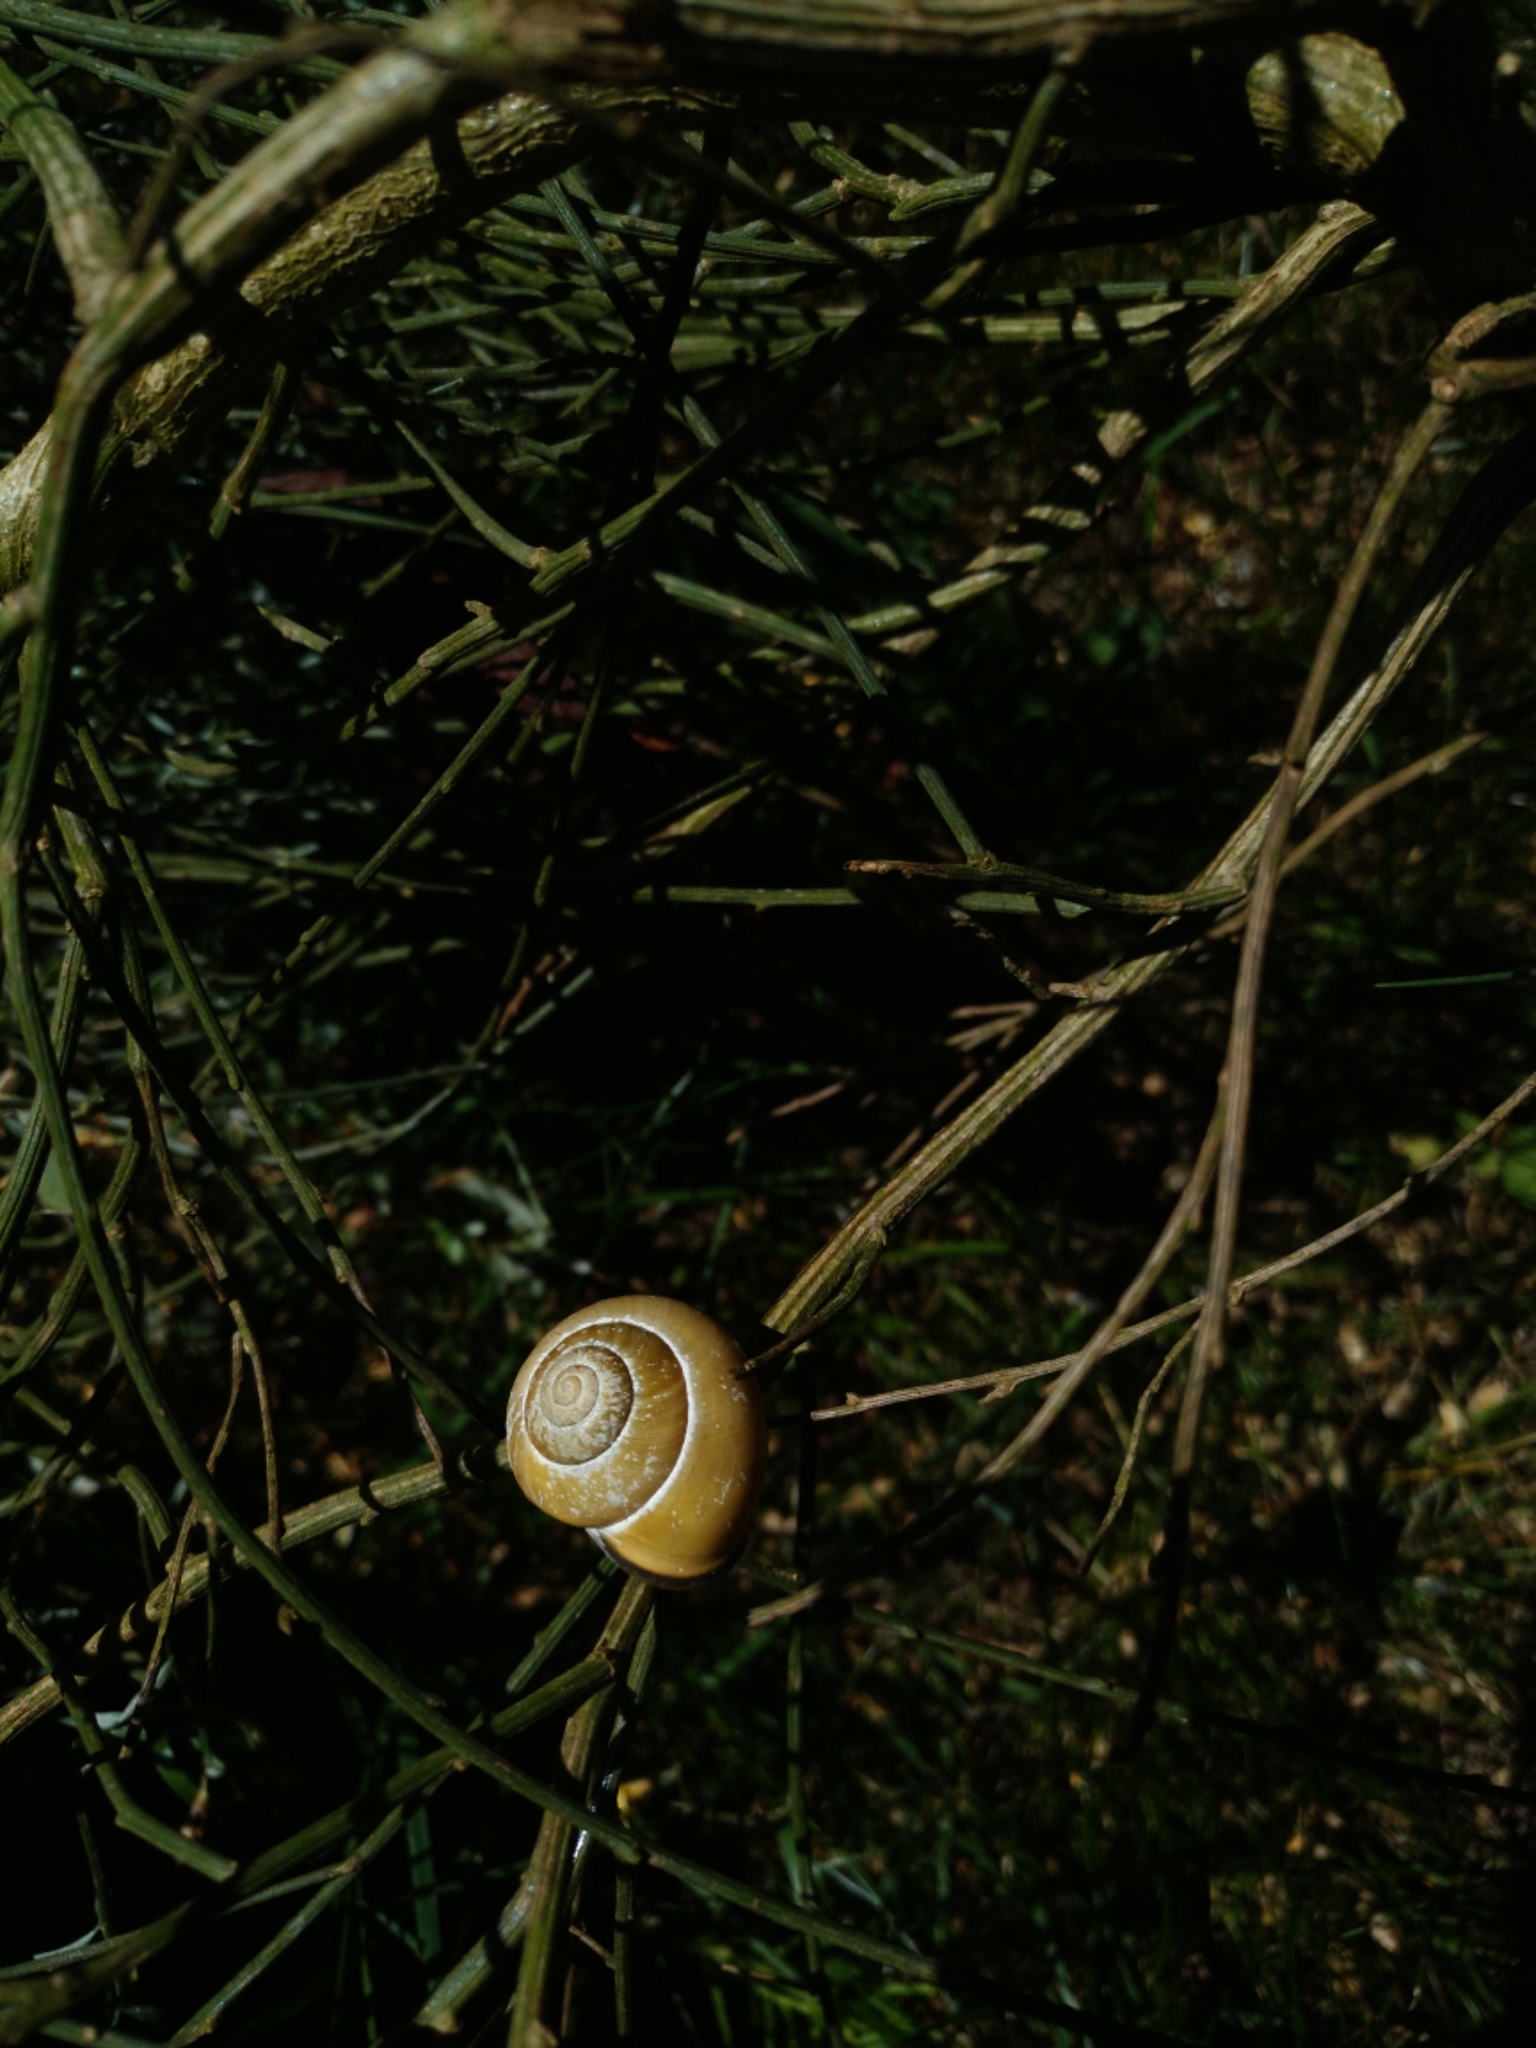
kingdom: Animalia
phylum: Mollusca
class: Gastropoda
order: Stylommatophora
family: Helicidae
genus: Cepaea
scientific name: Cepaea nemoralis
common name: Grovesnail
